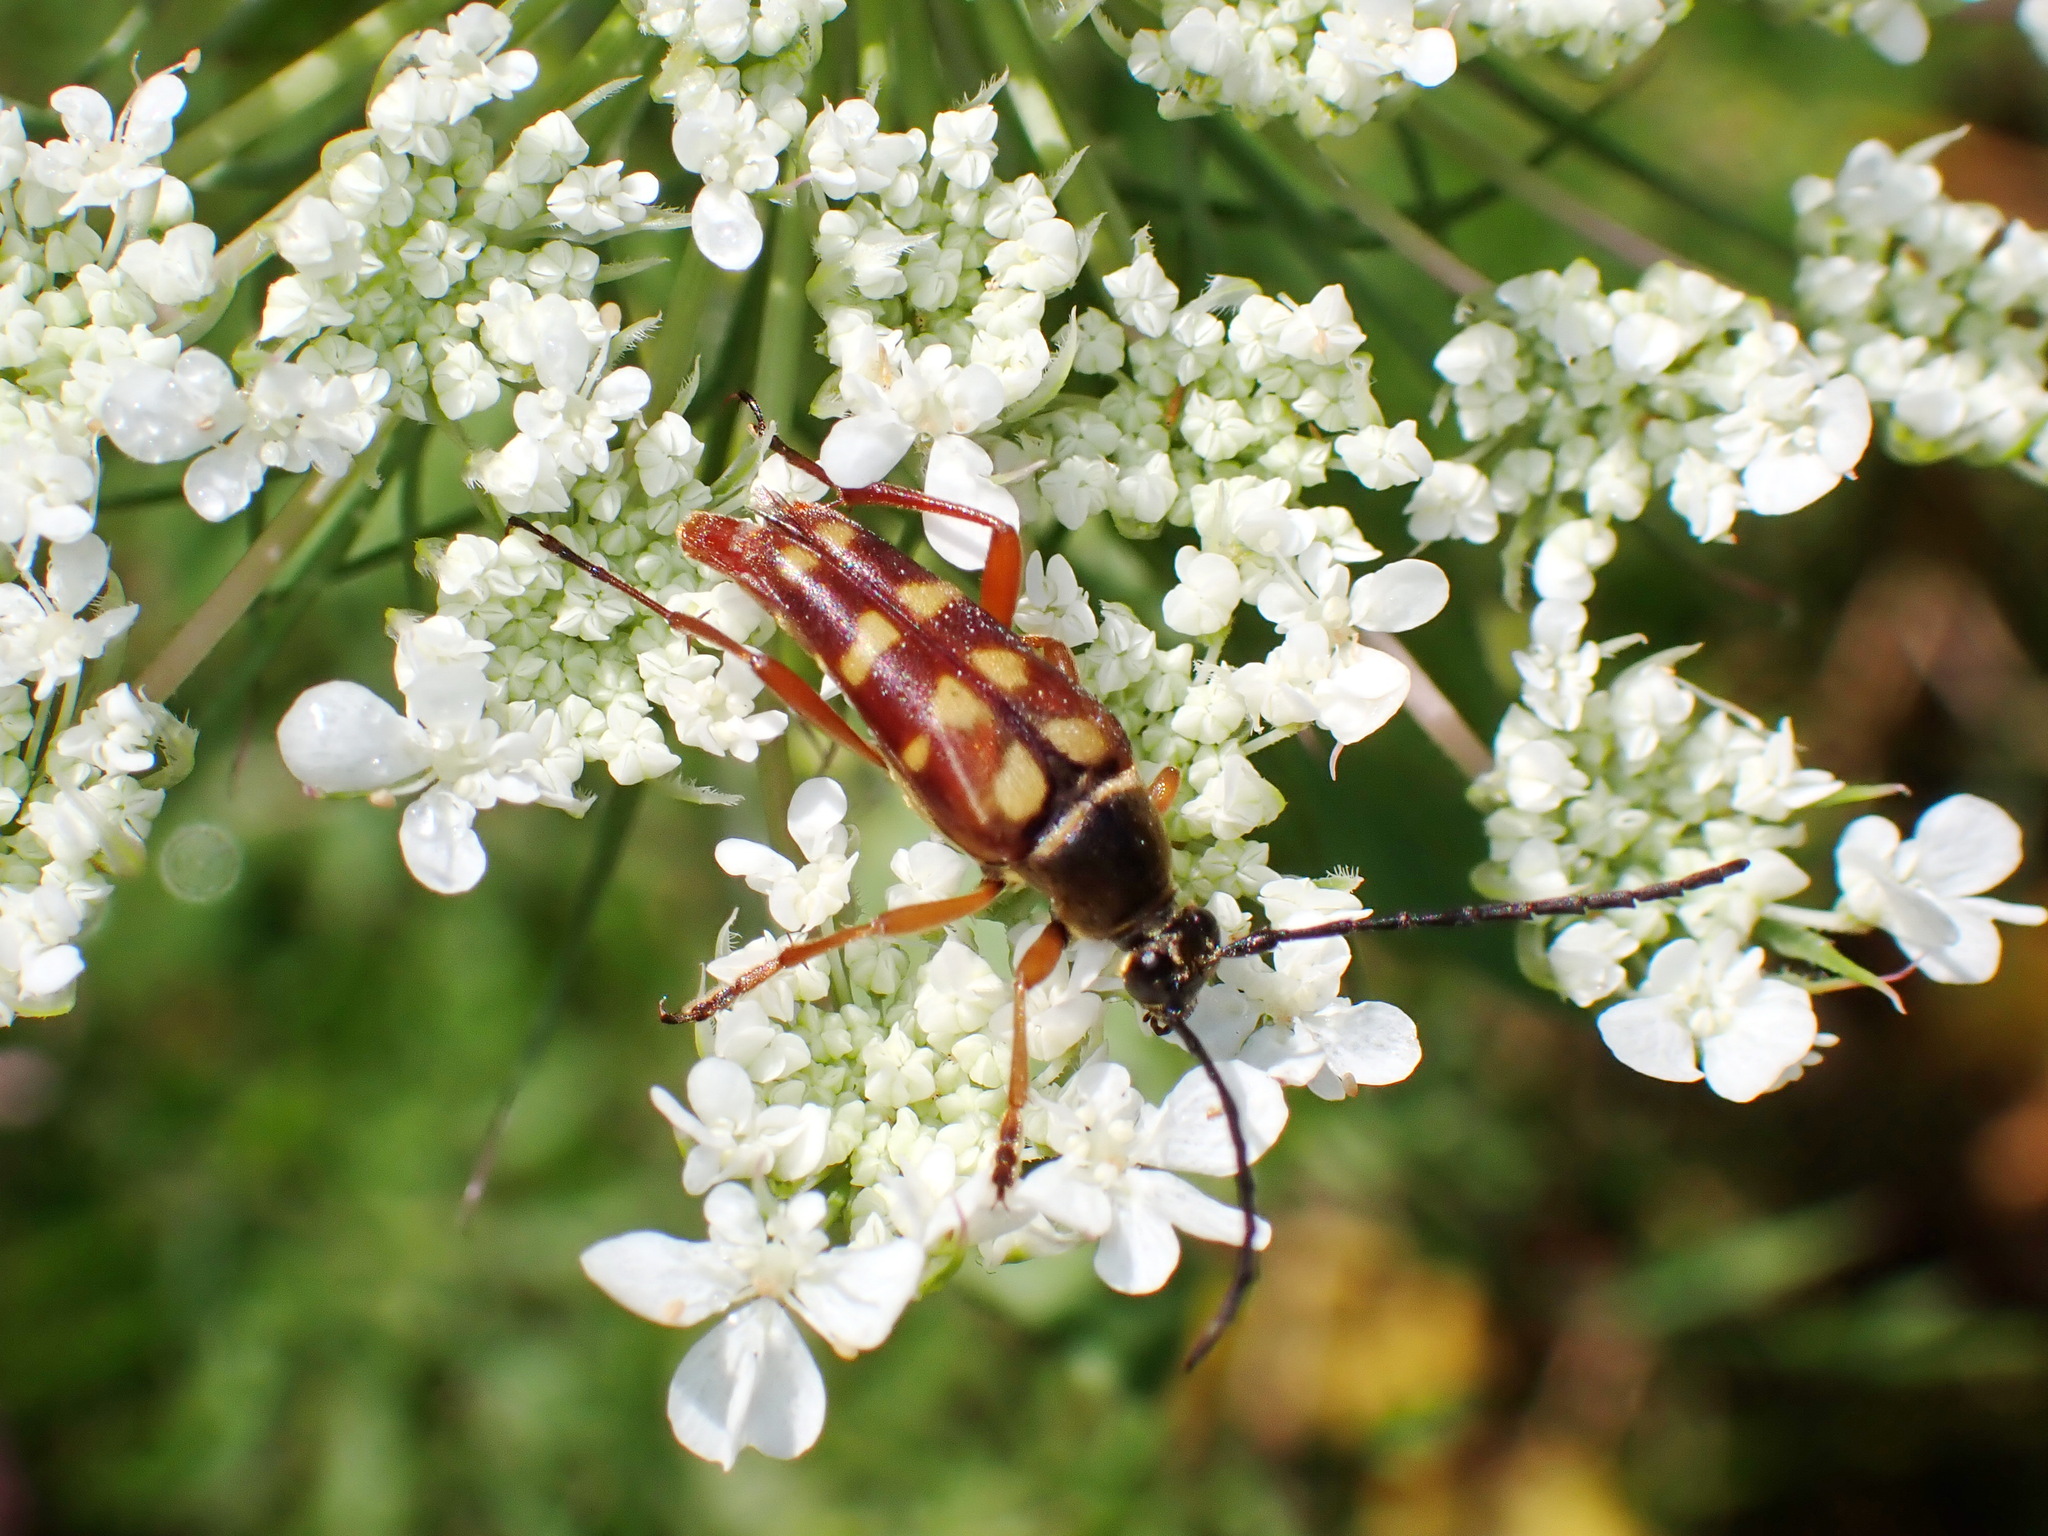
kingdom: Animalia
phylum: Arthropoda
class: Insecta
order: Coleoptera
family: Cerambycidae
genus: Typocerus
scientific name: Typocerus velutinus
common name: Banded longhorn beetle
